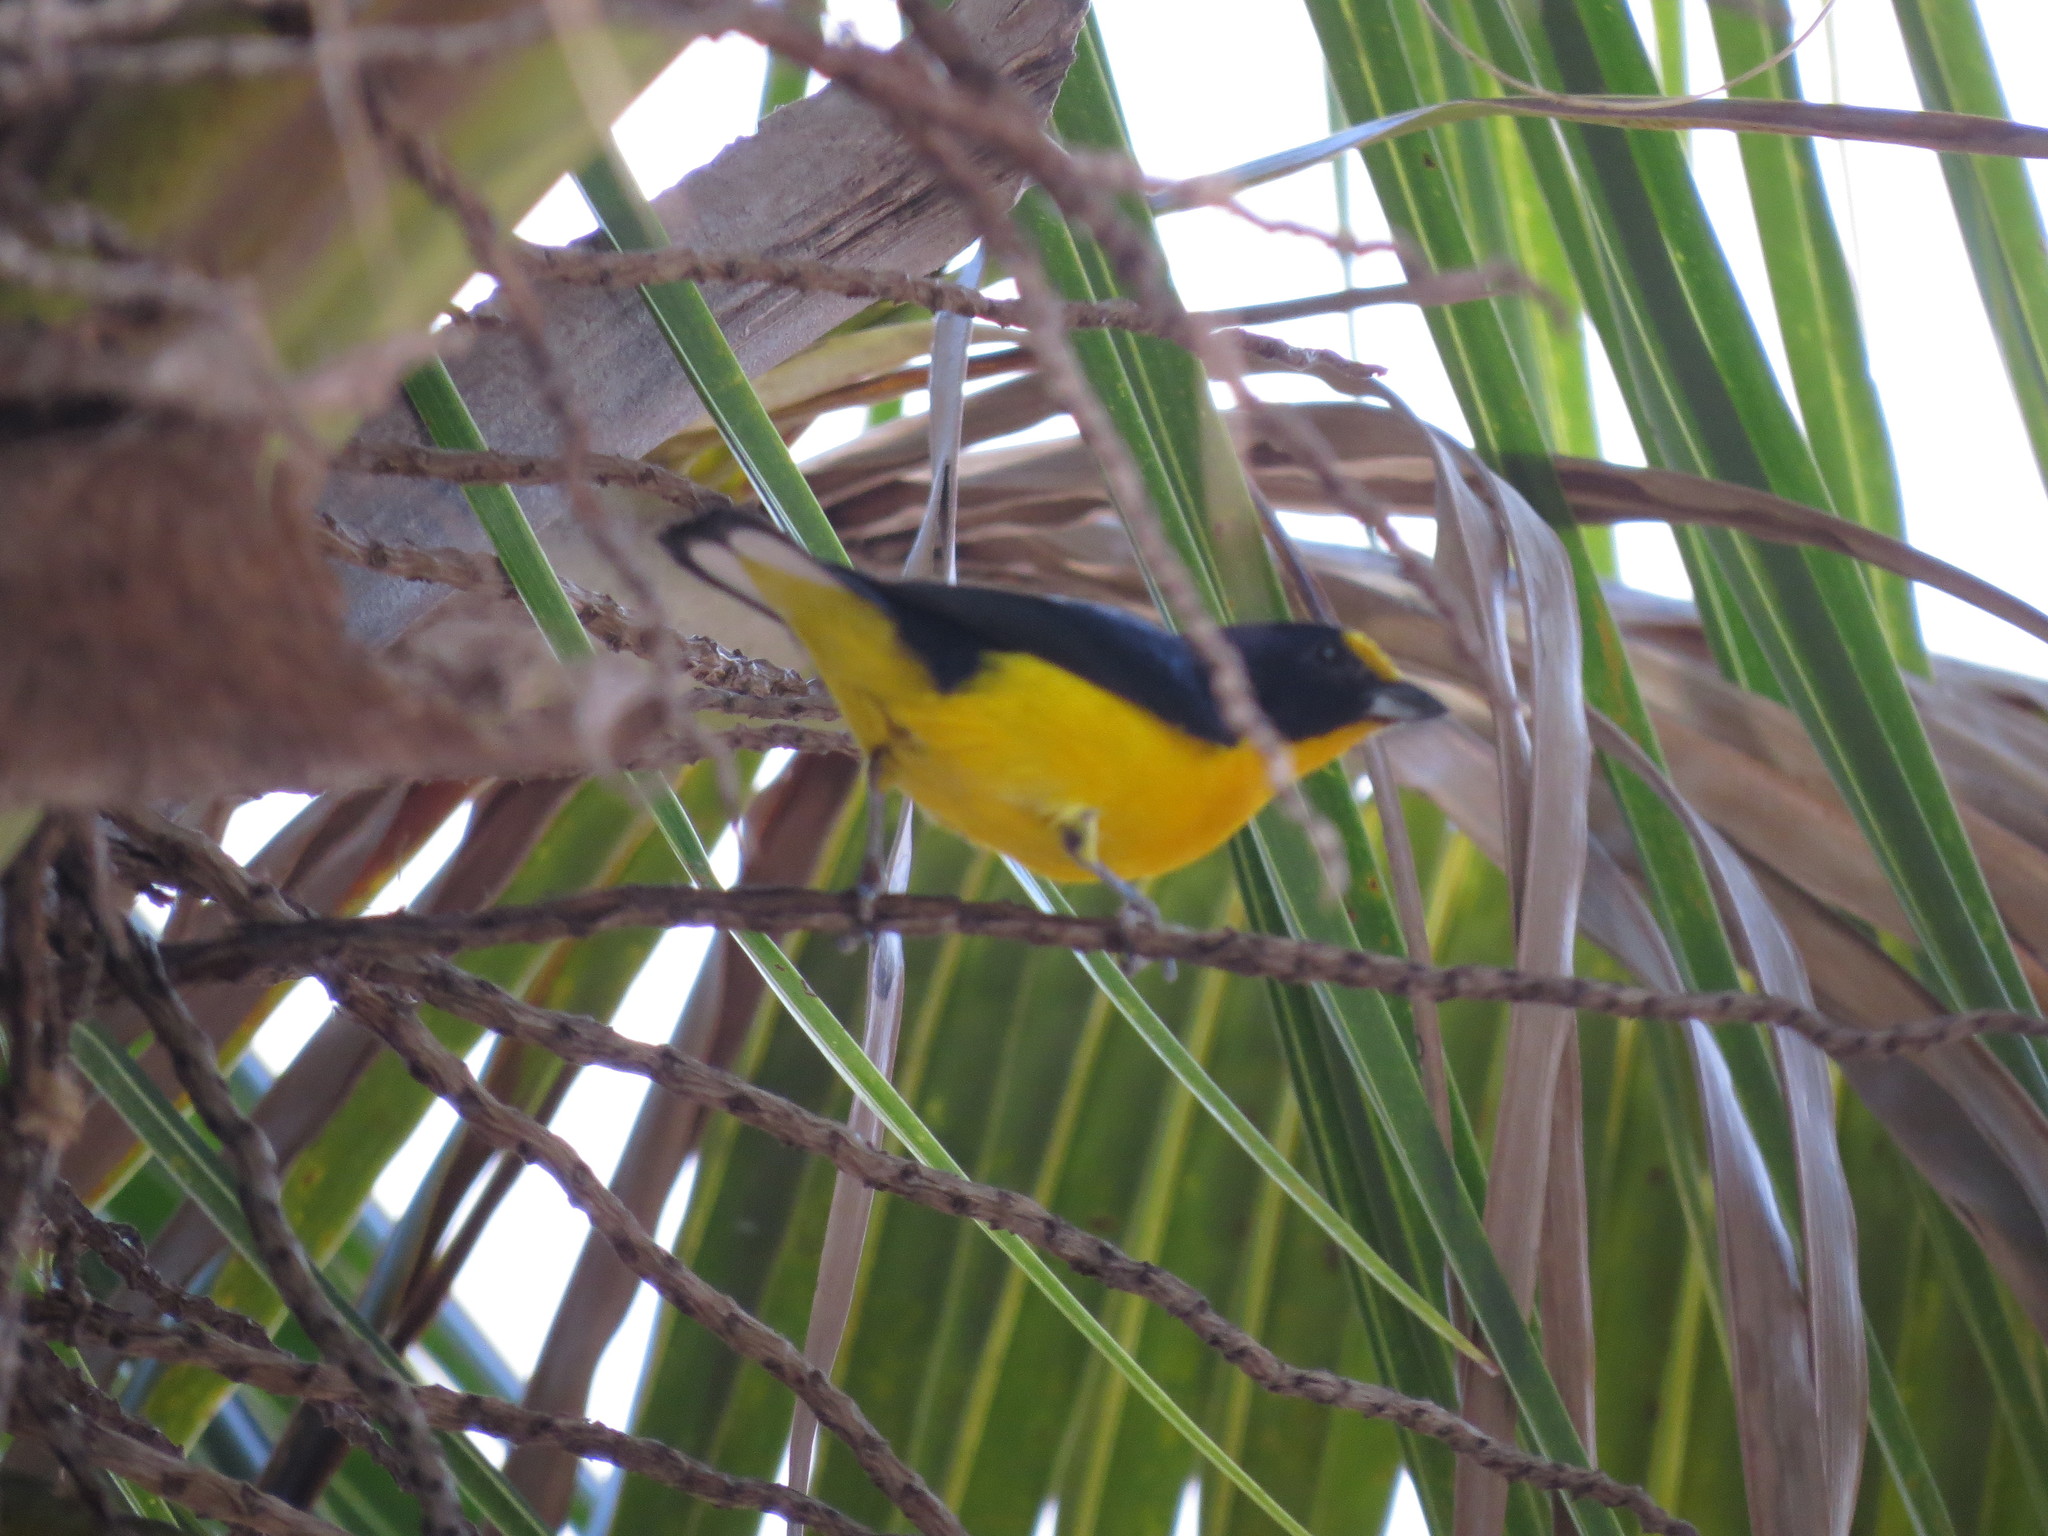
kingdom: Animalia
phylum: Chordata
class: Aves
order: Passeriformes
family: Fringillidae
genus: Euphonia
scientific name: Euphonia violacea
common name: Violaceous euphonia
